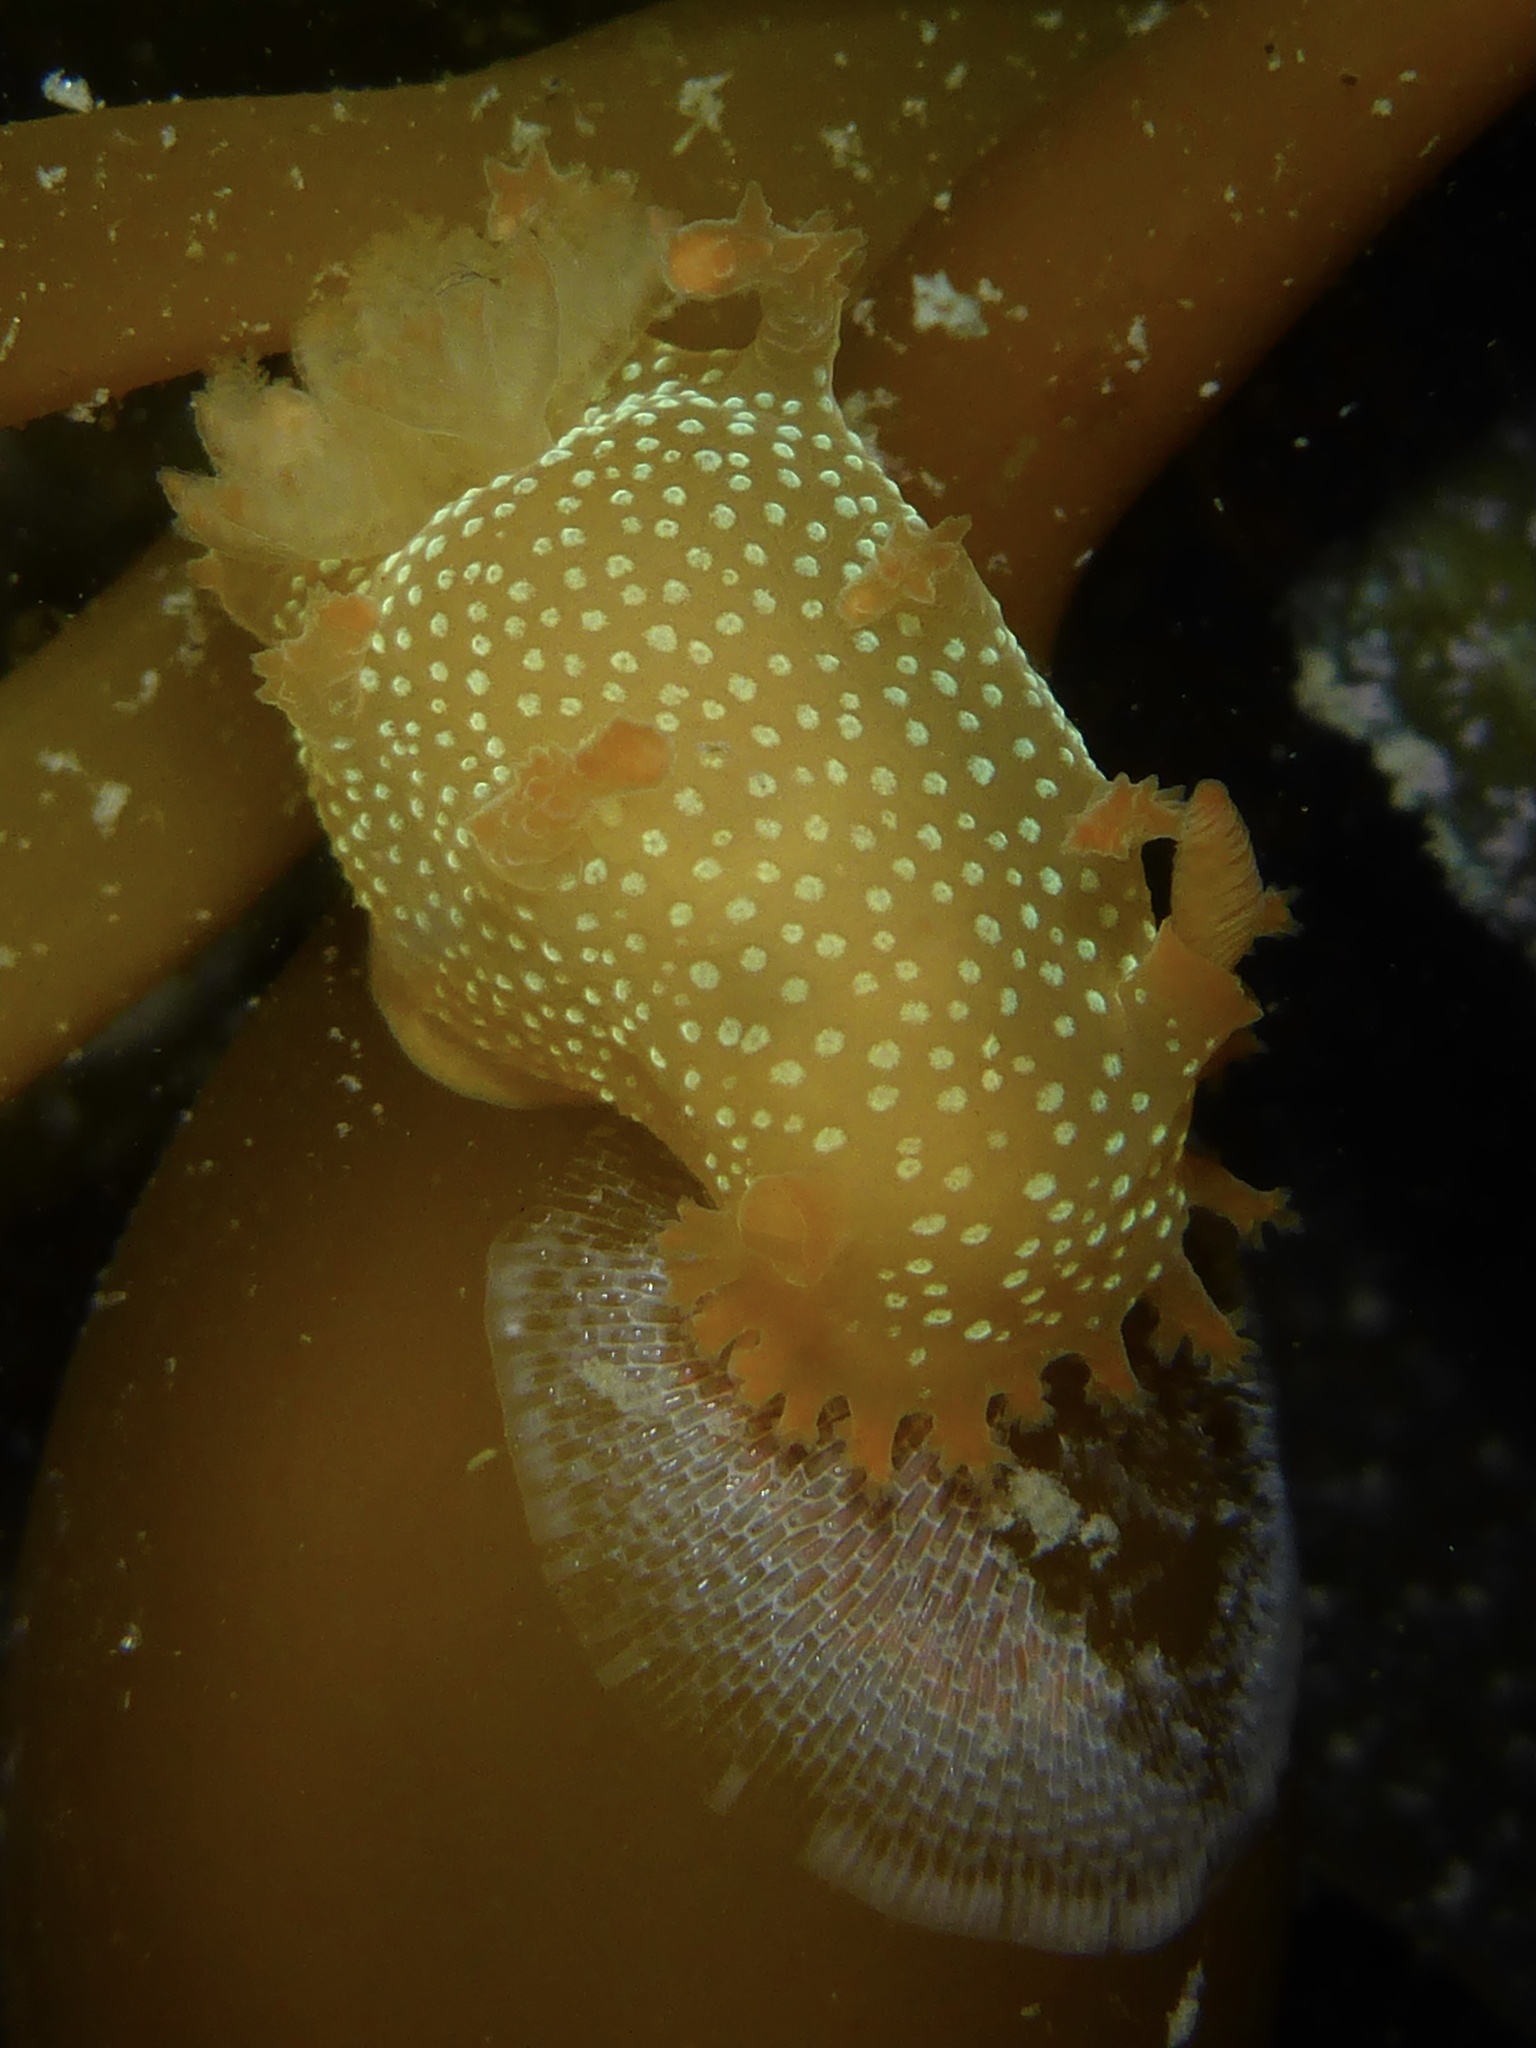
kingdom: Animalia
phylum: Mollusca
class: Gastropoda
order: Nudibranchia
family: Polyceridae
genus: Triopha
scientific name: Triopha maculata
